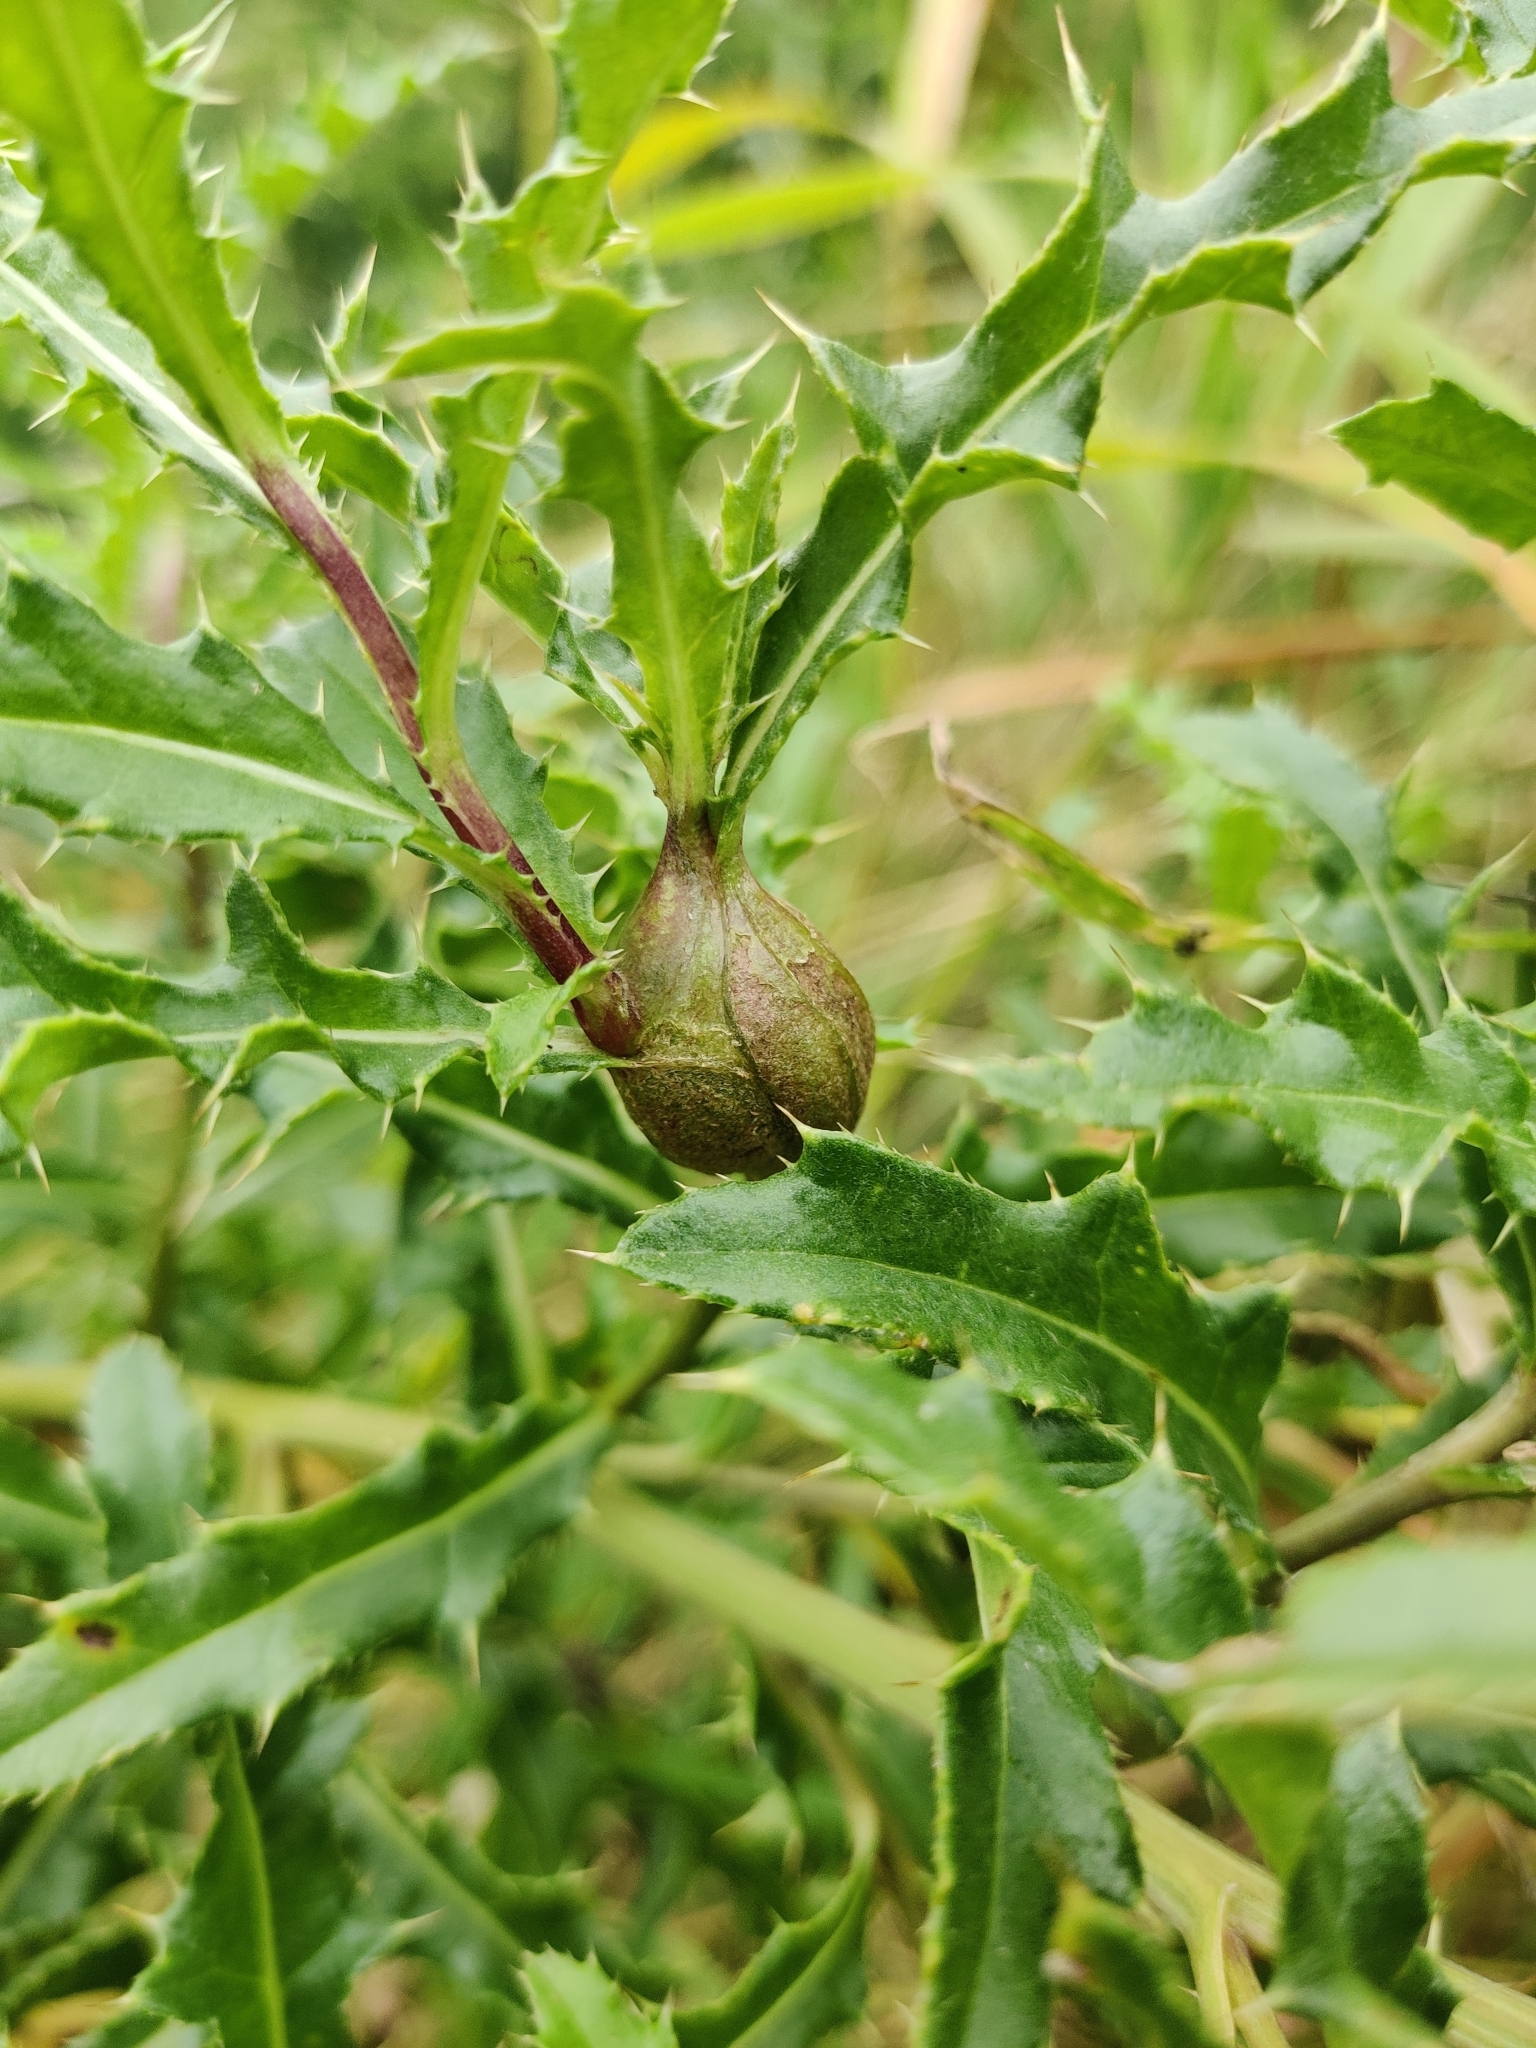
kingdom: Animalia
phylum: Arthropoda
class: Insecta
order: Diptera
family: Tephritidae
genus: Urophora
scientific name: Urophora cardui
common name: Fruit fly
